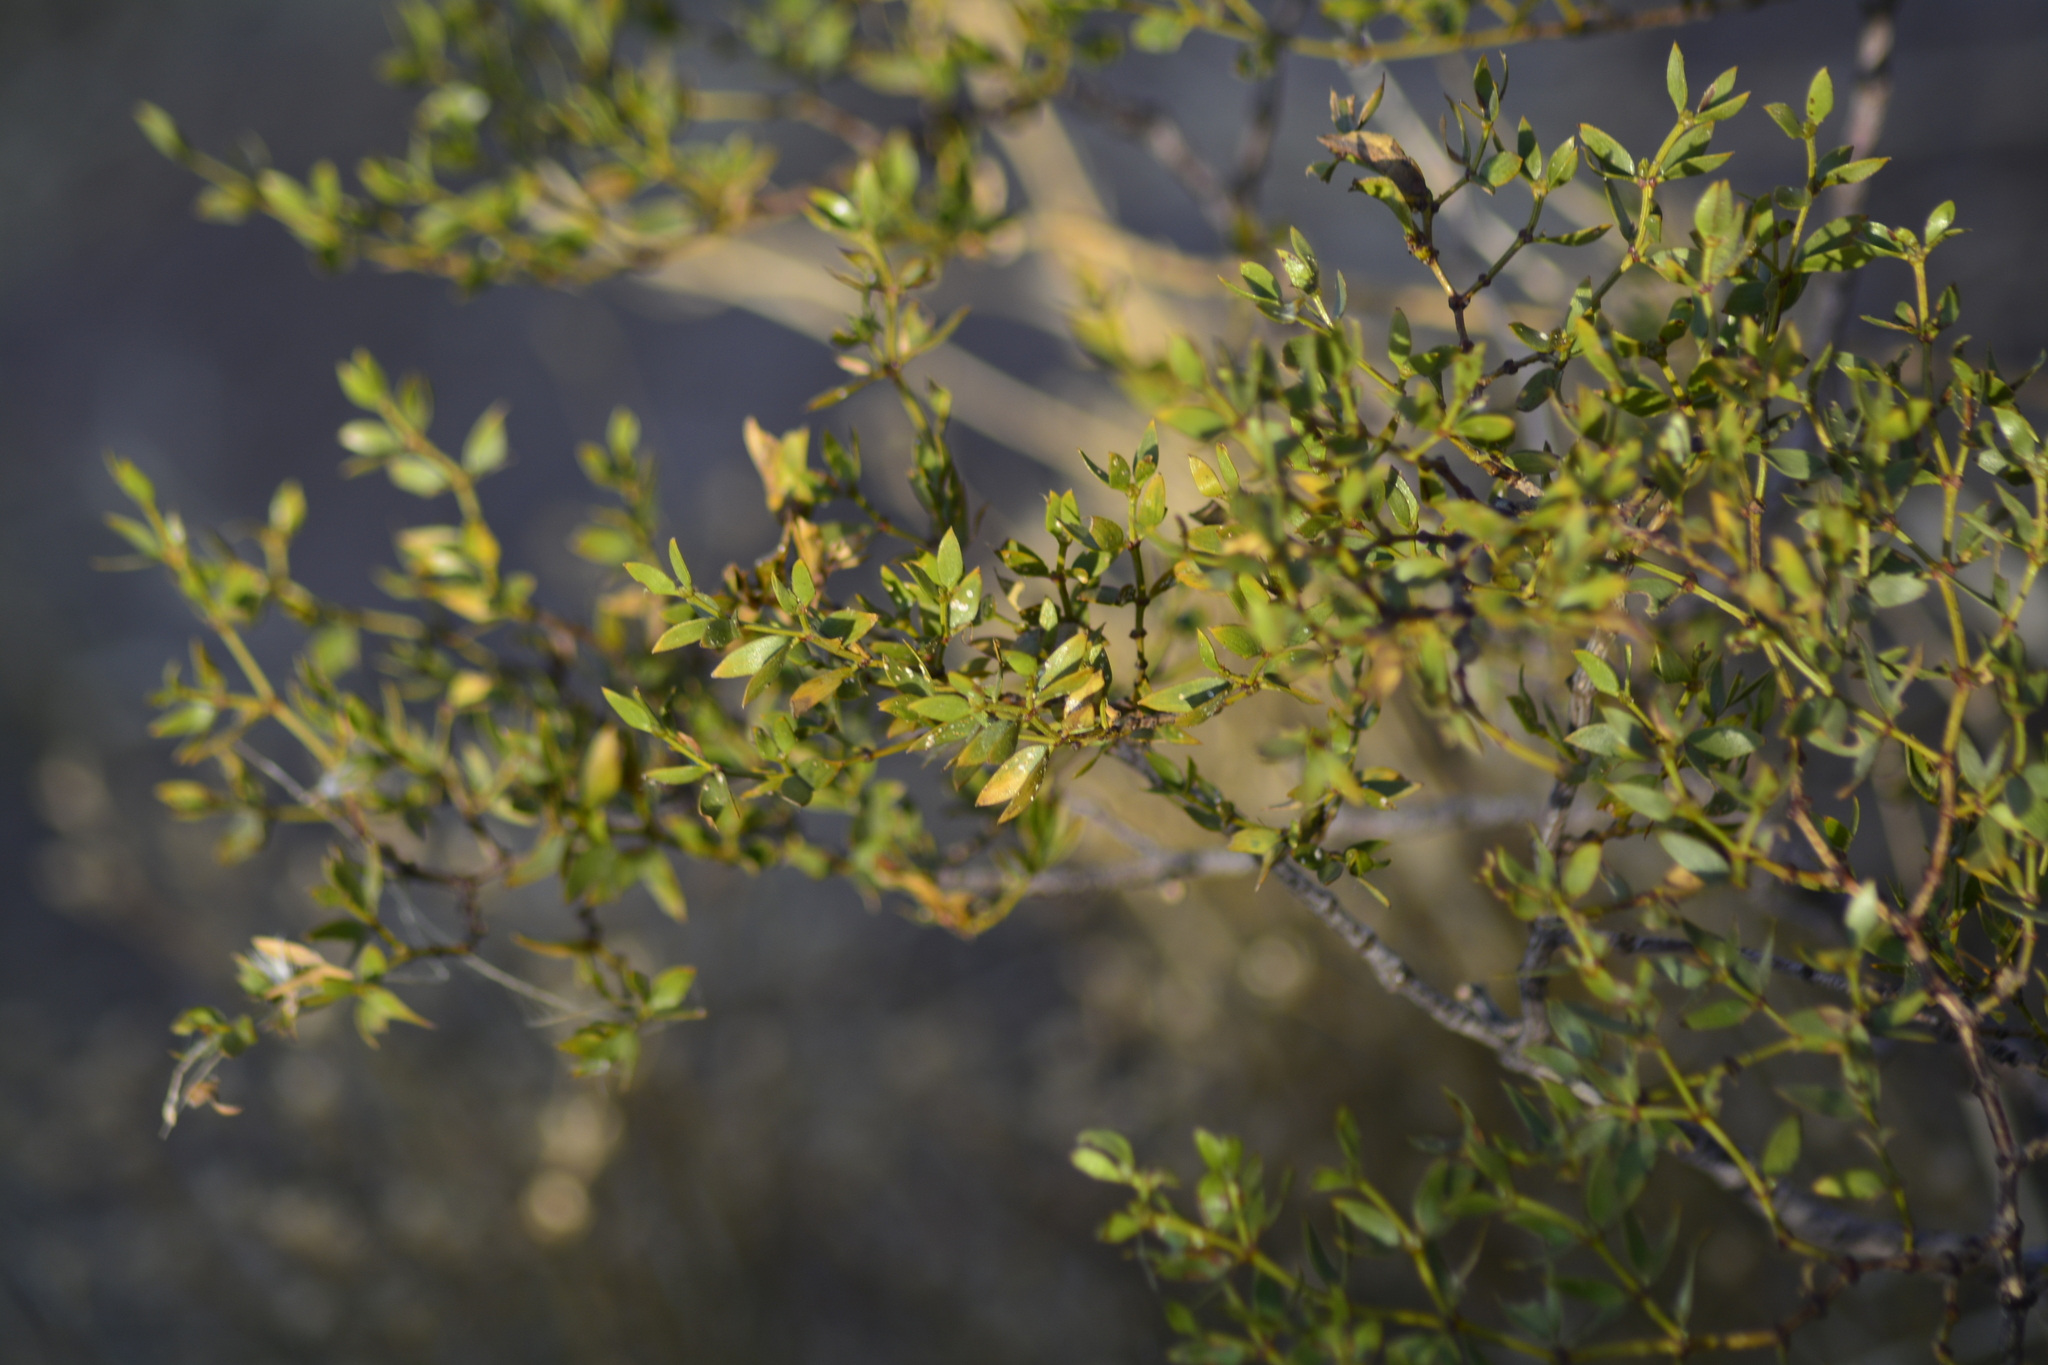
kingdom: Plantae
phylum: Tracheophyta
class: Magnoliopsida
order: Zygophyllales
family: Zygophyllaceae
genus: Larrea
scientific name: Larrea divaricata
